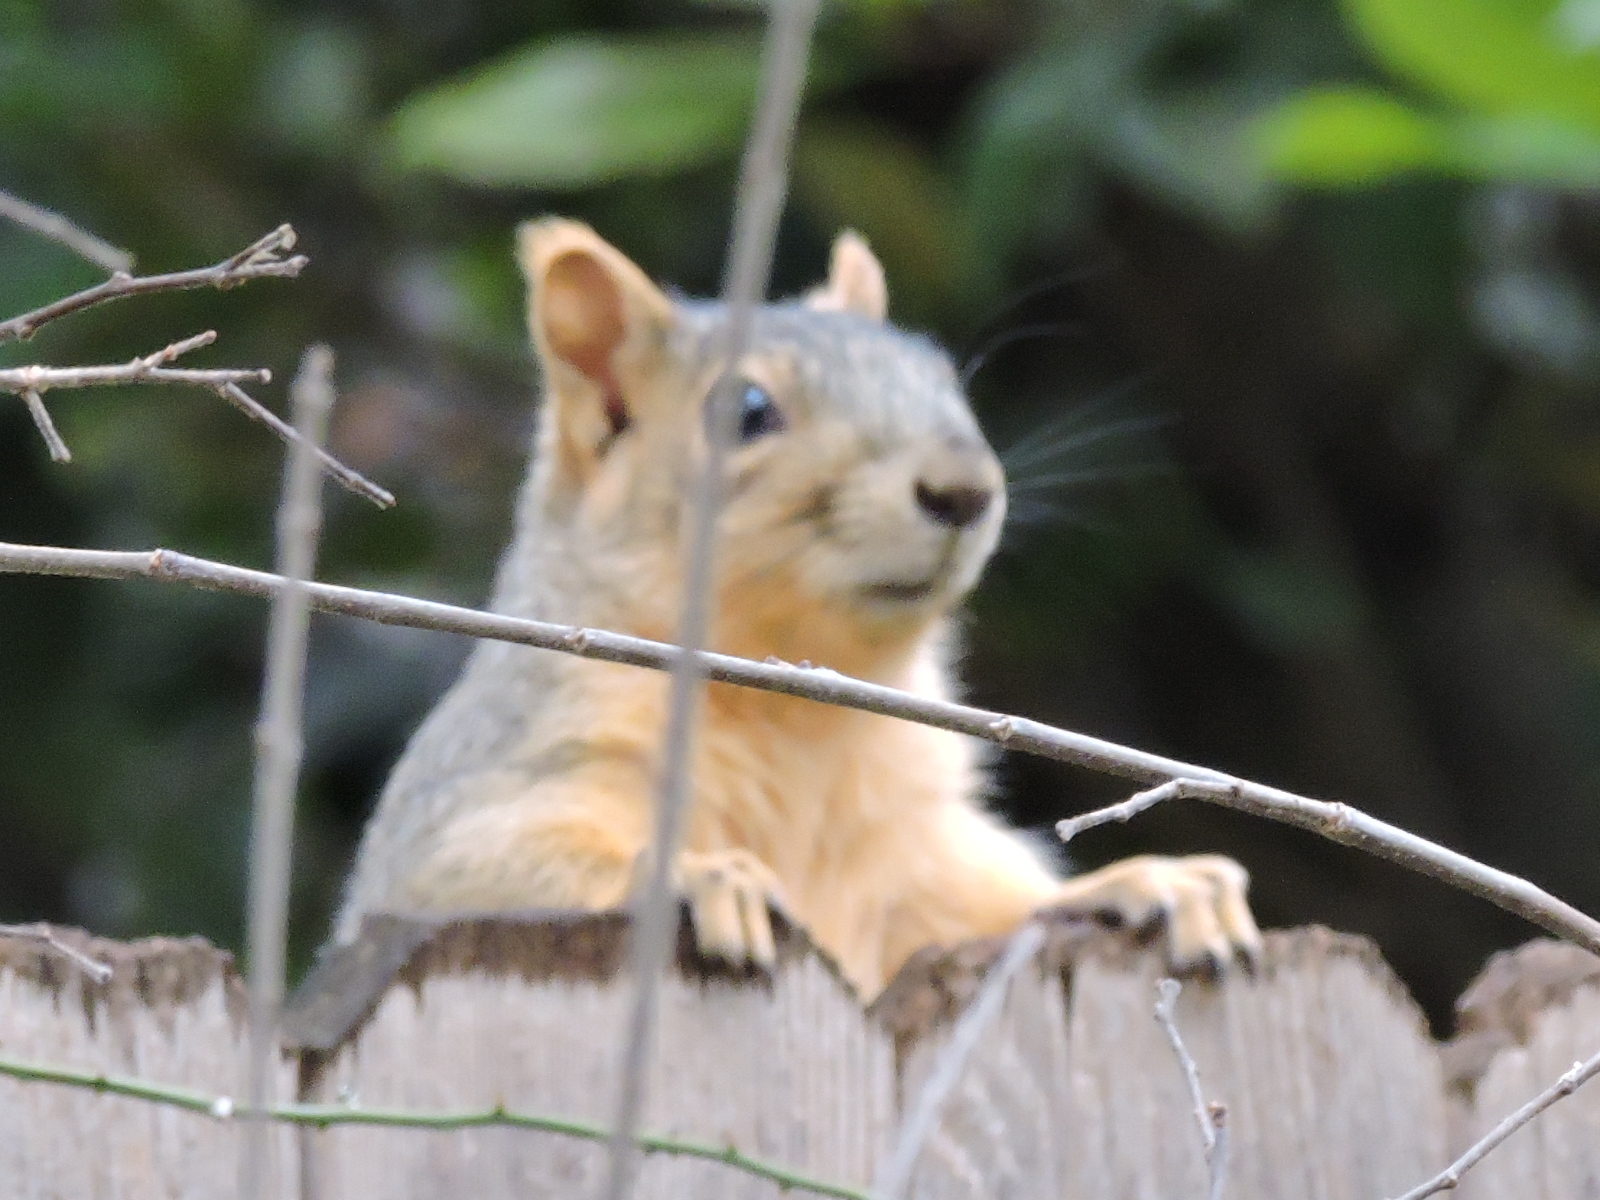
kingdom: Animalia
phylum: Chordata
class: Mammalia
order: Rodentia
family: Sciuridae
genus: Sciurus
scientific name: Sciurus niger
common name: Fox squirrel
